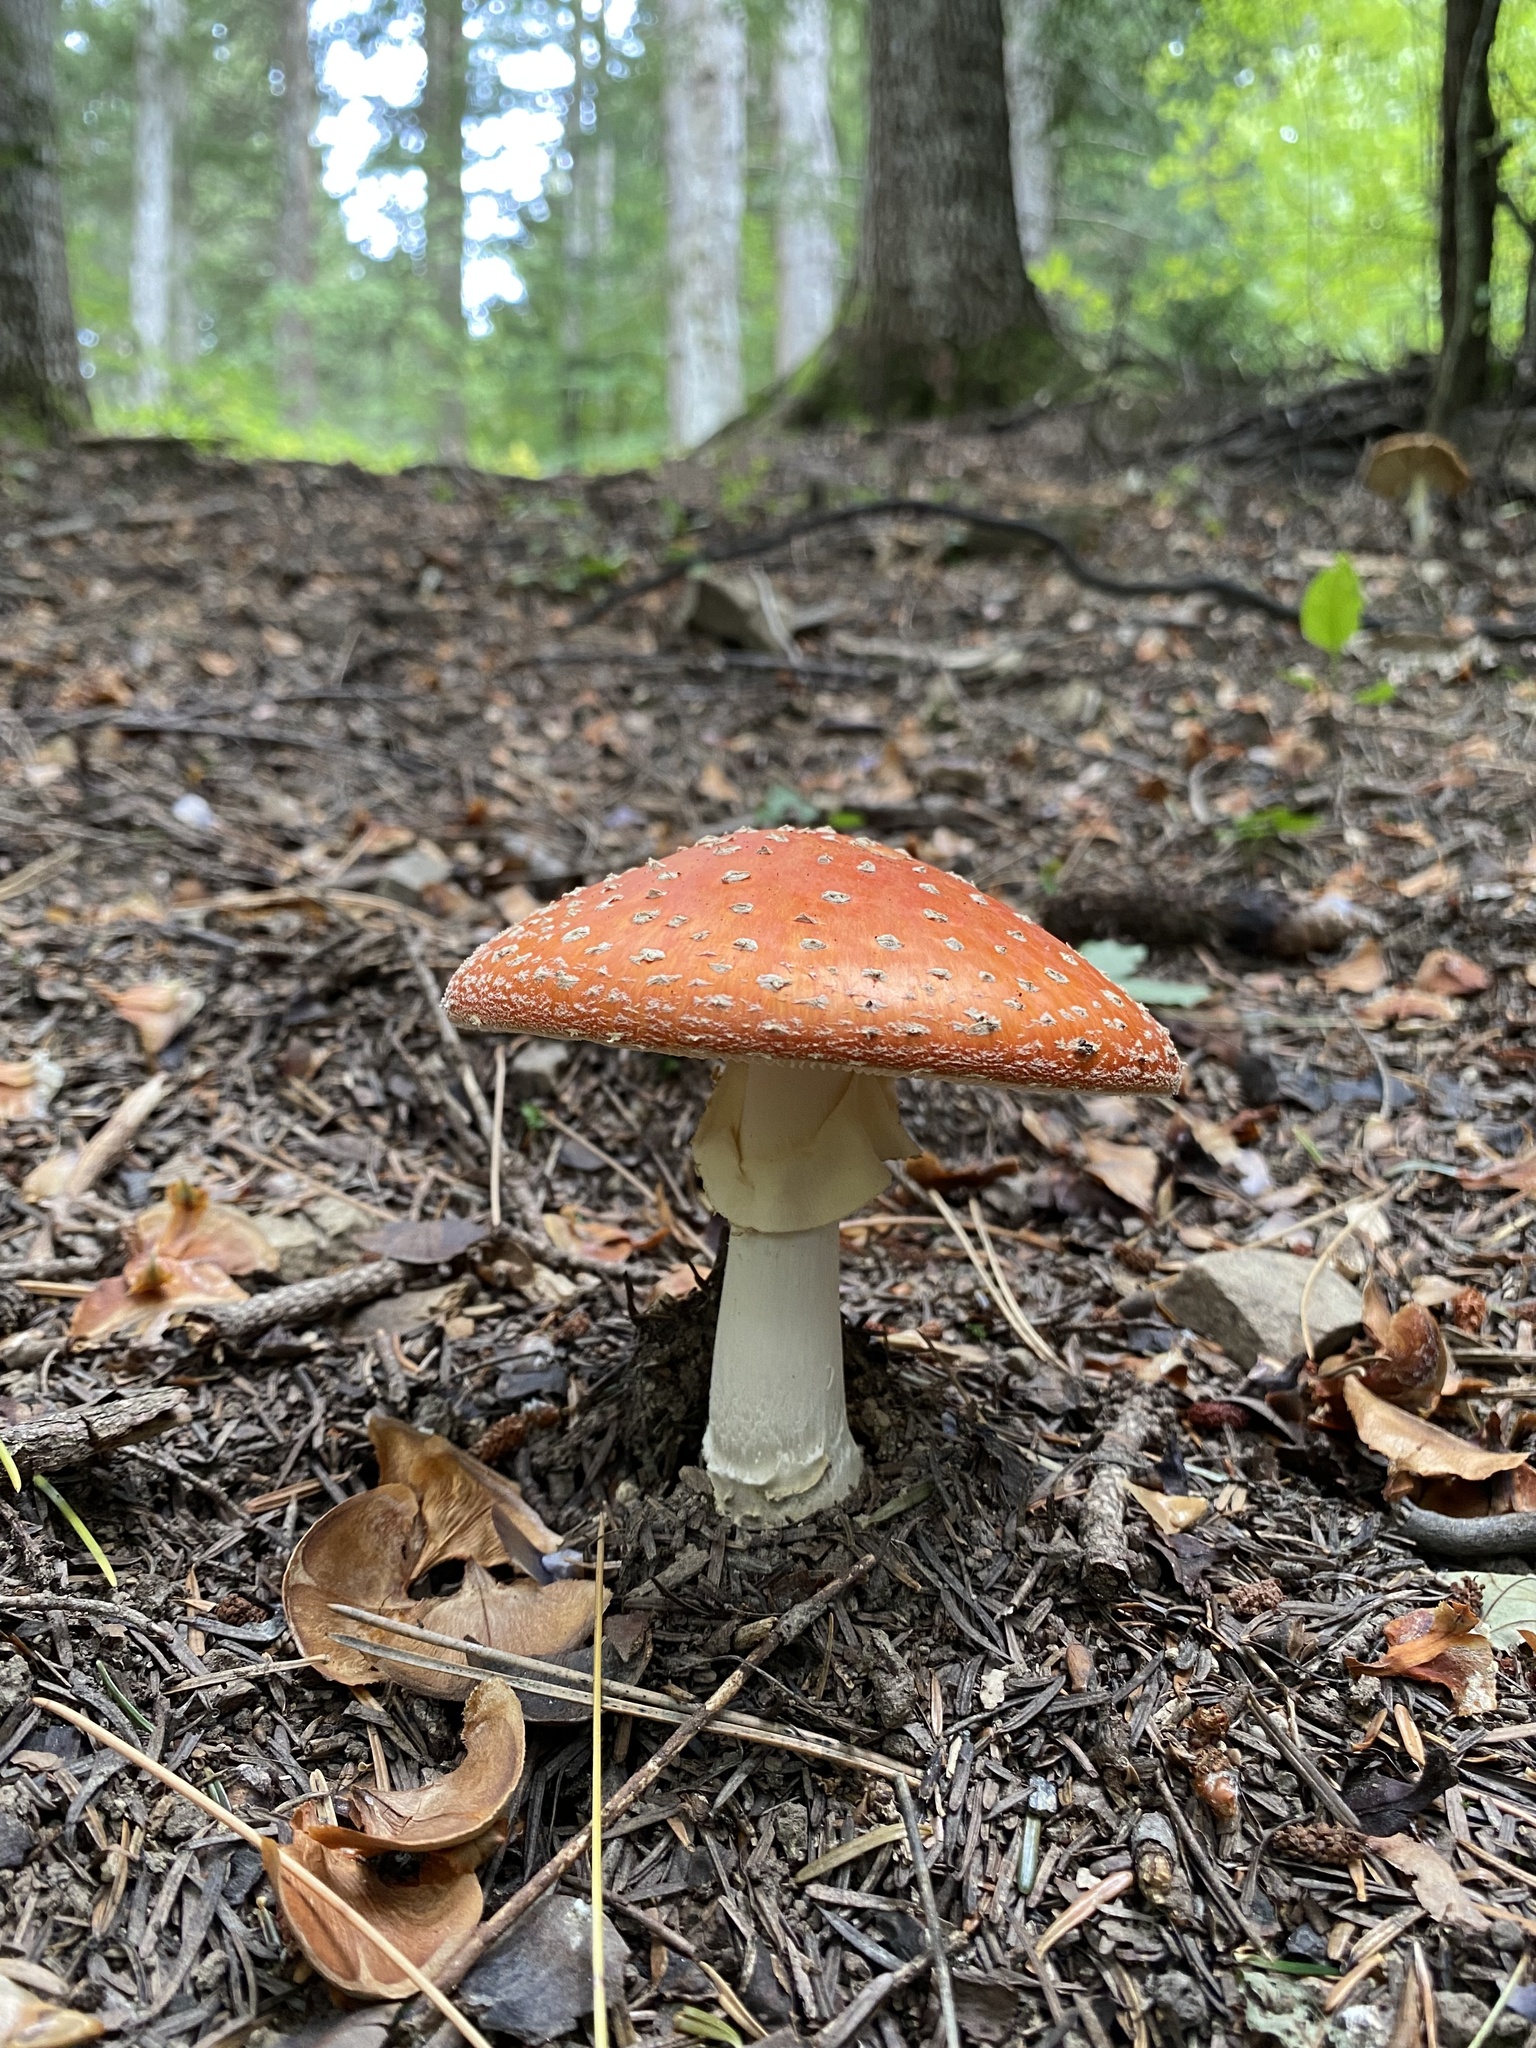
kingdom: Fungi
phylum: Basidiomycota
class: Agaricomycetes
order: Agaricales
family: Amanitaceae
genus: Amanita
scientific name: Amanita muscaria
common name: Fly agaric
